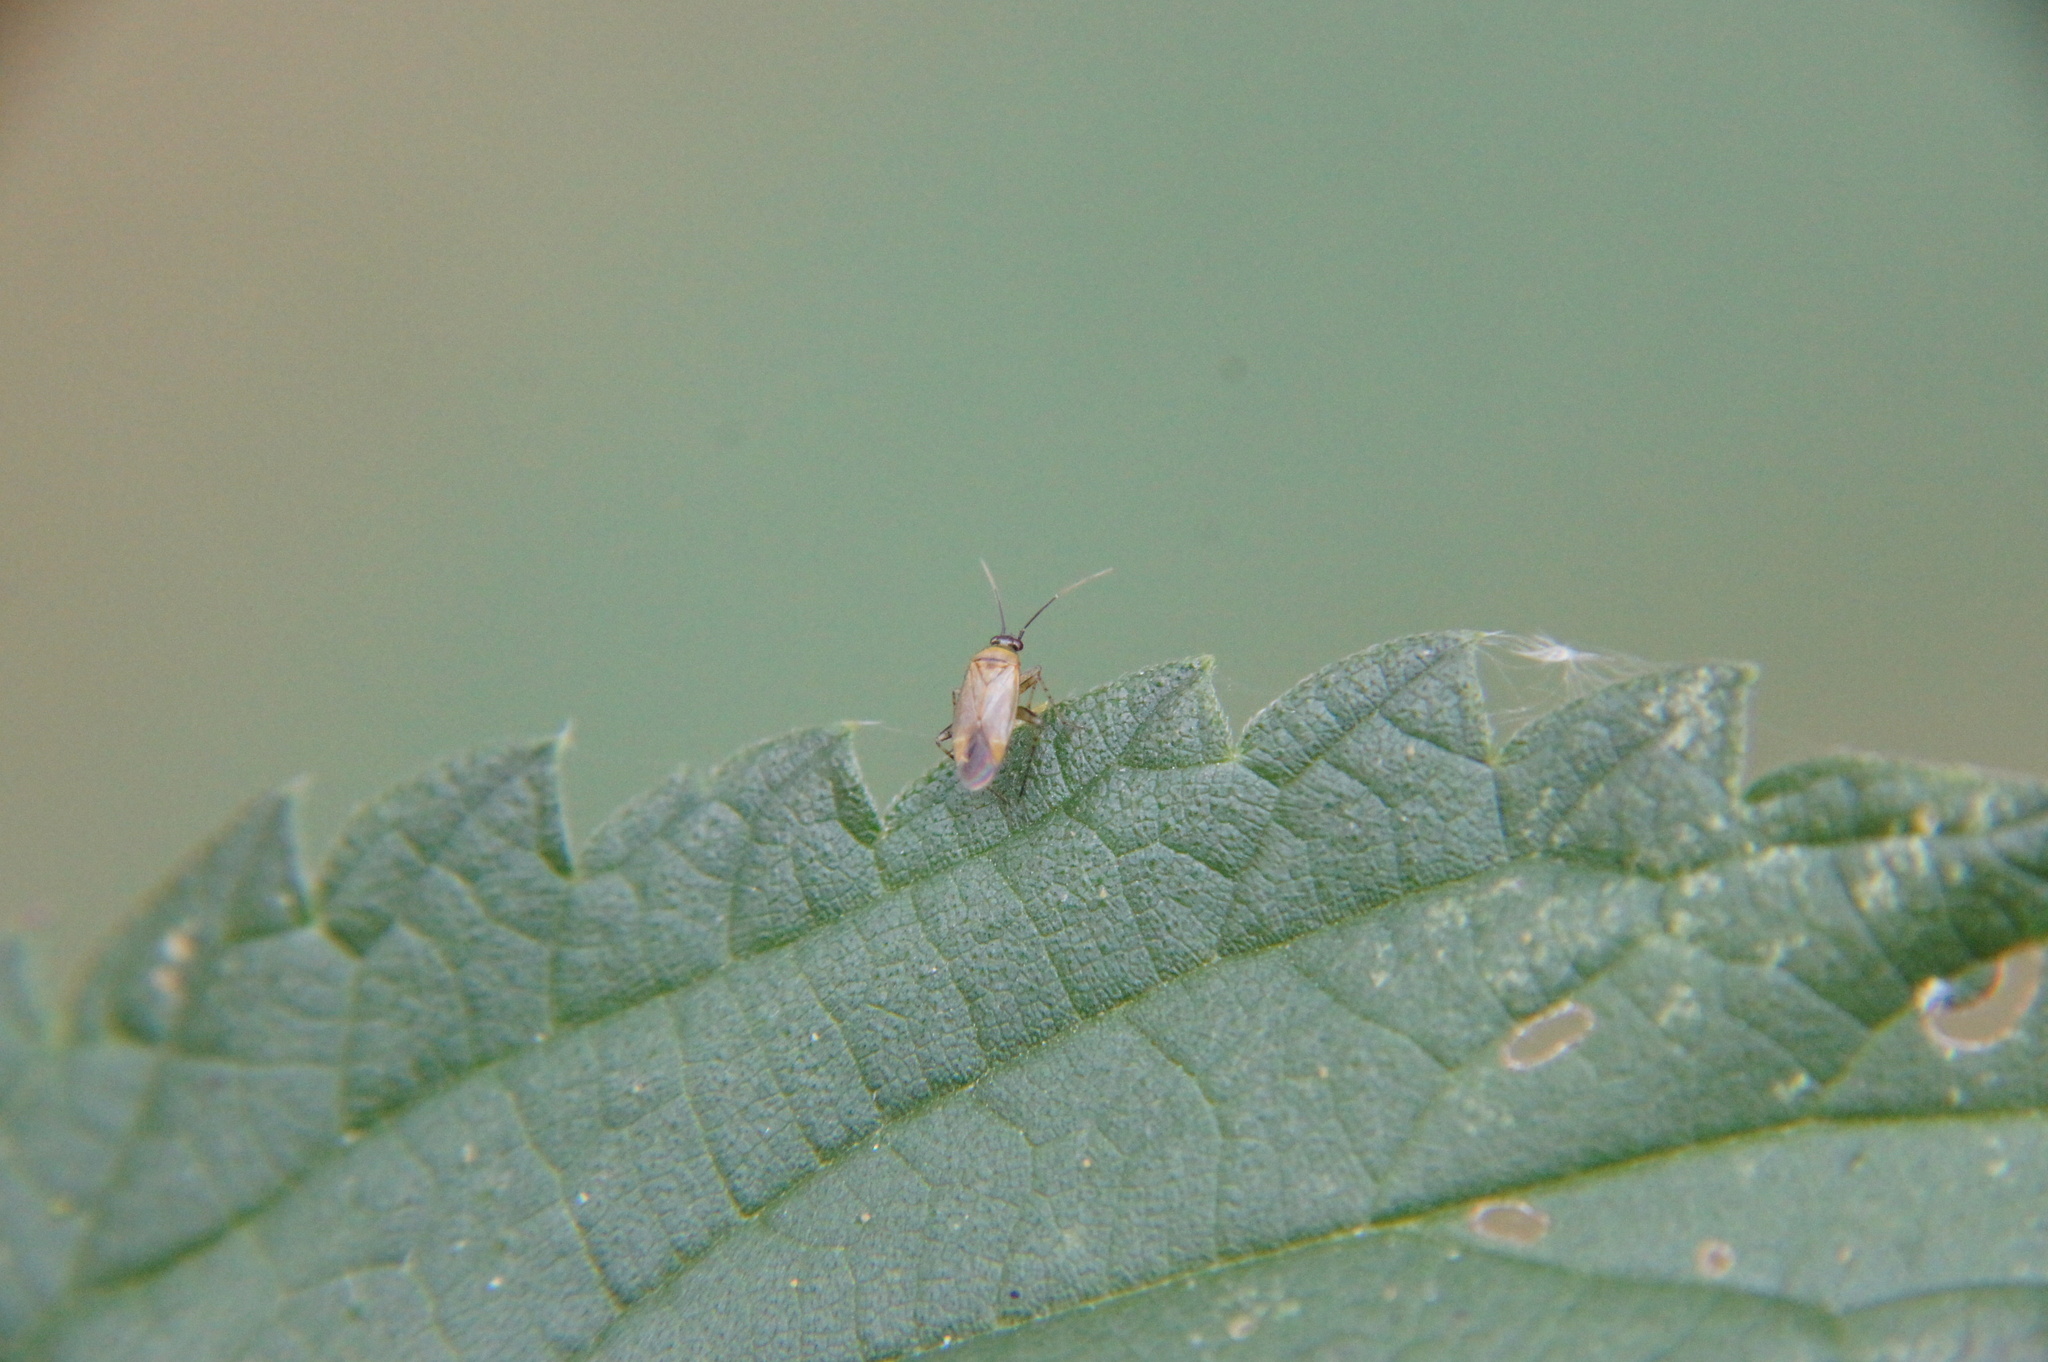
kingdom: Animalia
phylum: Arthropoda
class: Insecta
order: Hemiptera
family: Miridae
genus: Plagiognathus
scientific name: Plagiognathus arbustorum
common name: Plant bug
